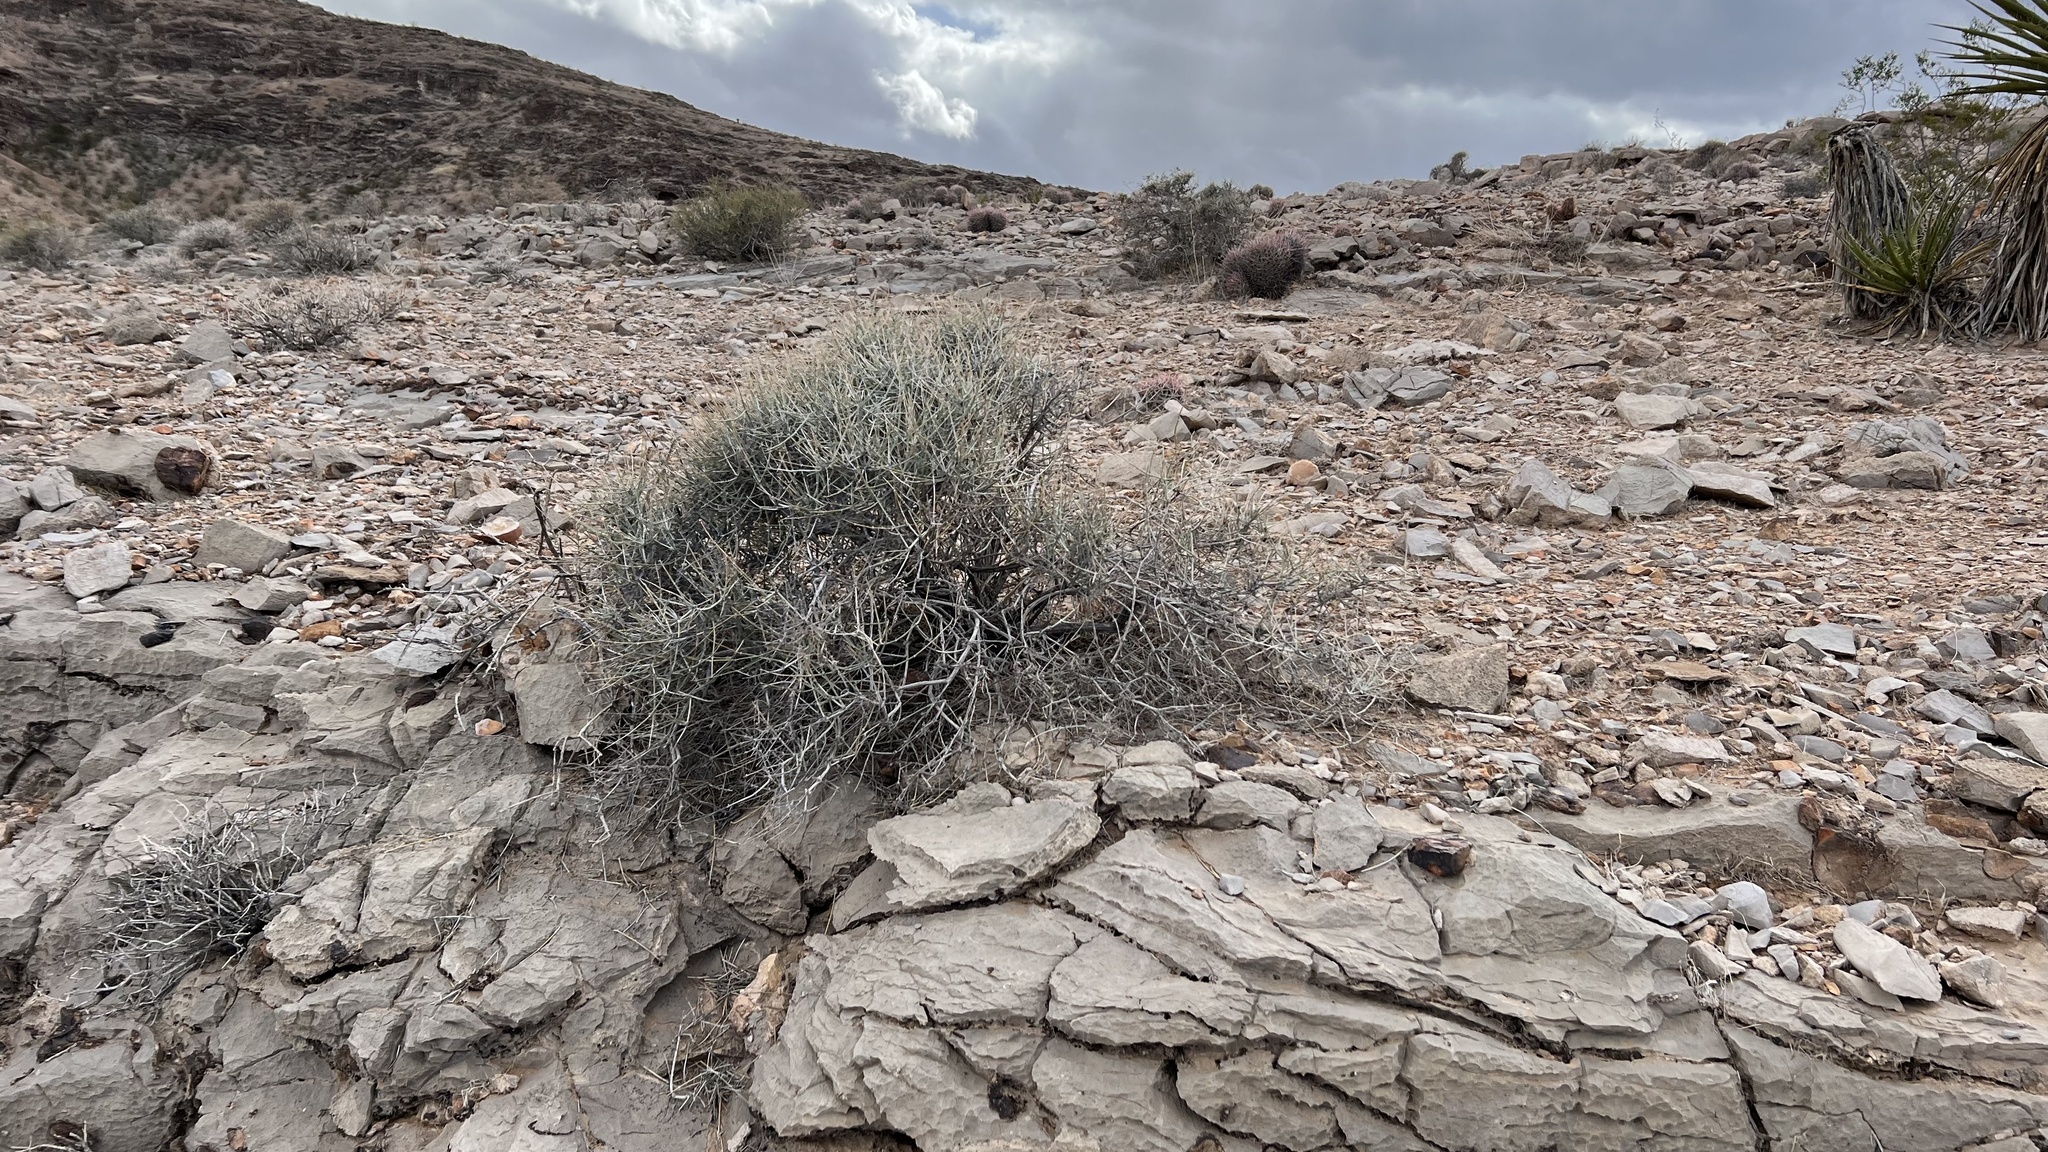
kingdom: Plantae
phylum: Tracheophyta
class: Gnetopsida
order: Ephedrales
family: Ephedraceae
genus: Ephedra
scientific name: Ephedra nevadensis
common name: Gray ephedra
